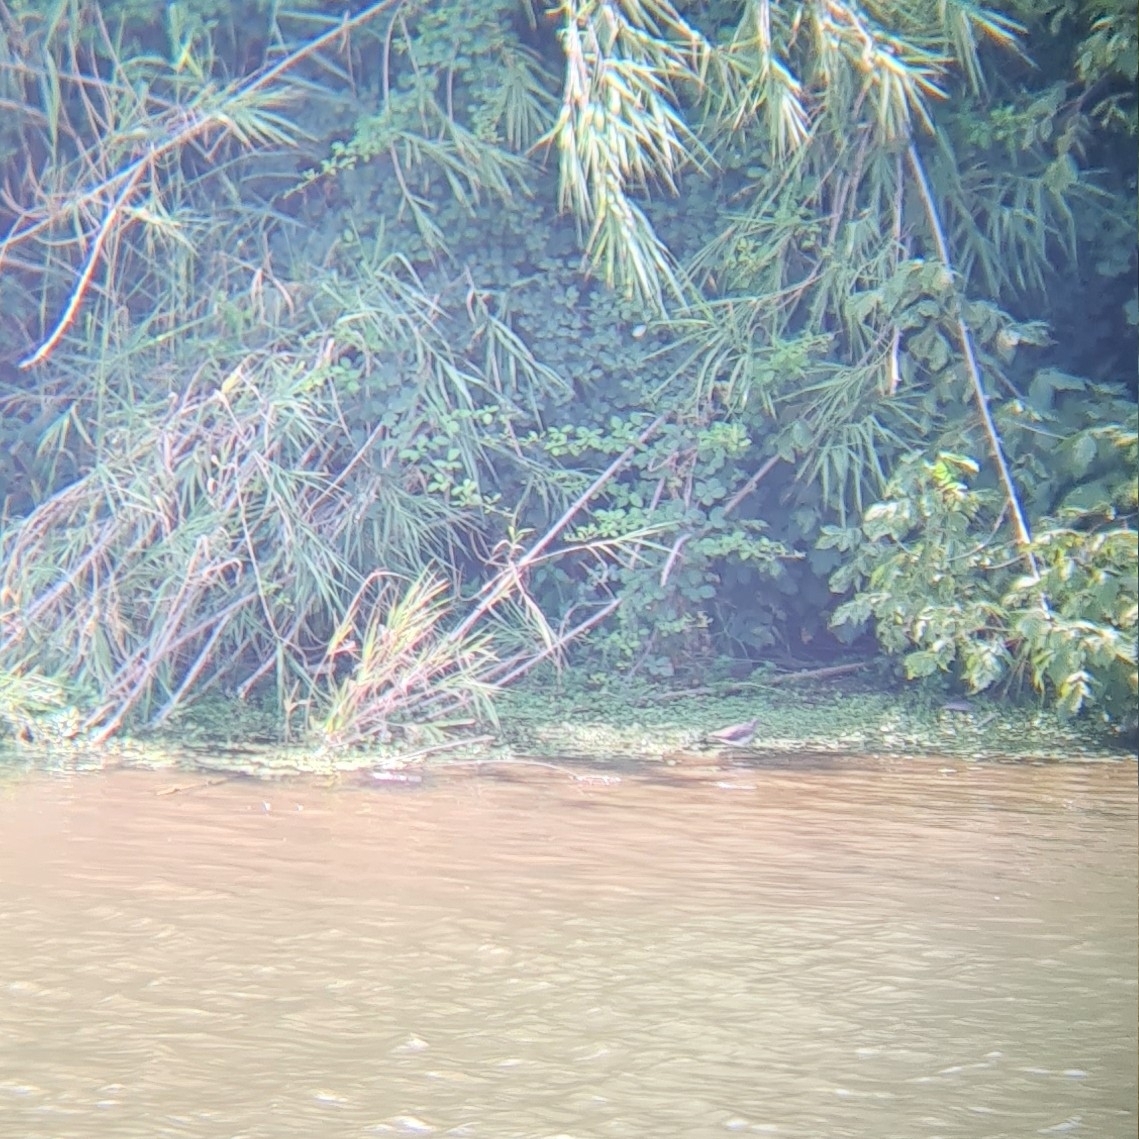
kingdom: Animalia
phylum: Chordata
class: Aves
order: Charadriiformes
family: Scolopacidae
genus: Actitis
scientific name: Actitis hypoleucos
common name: Common sandpiper
